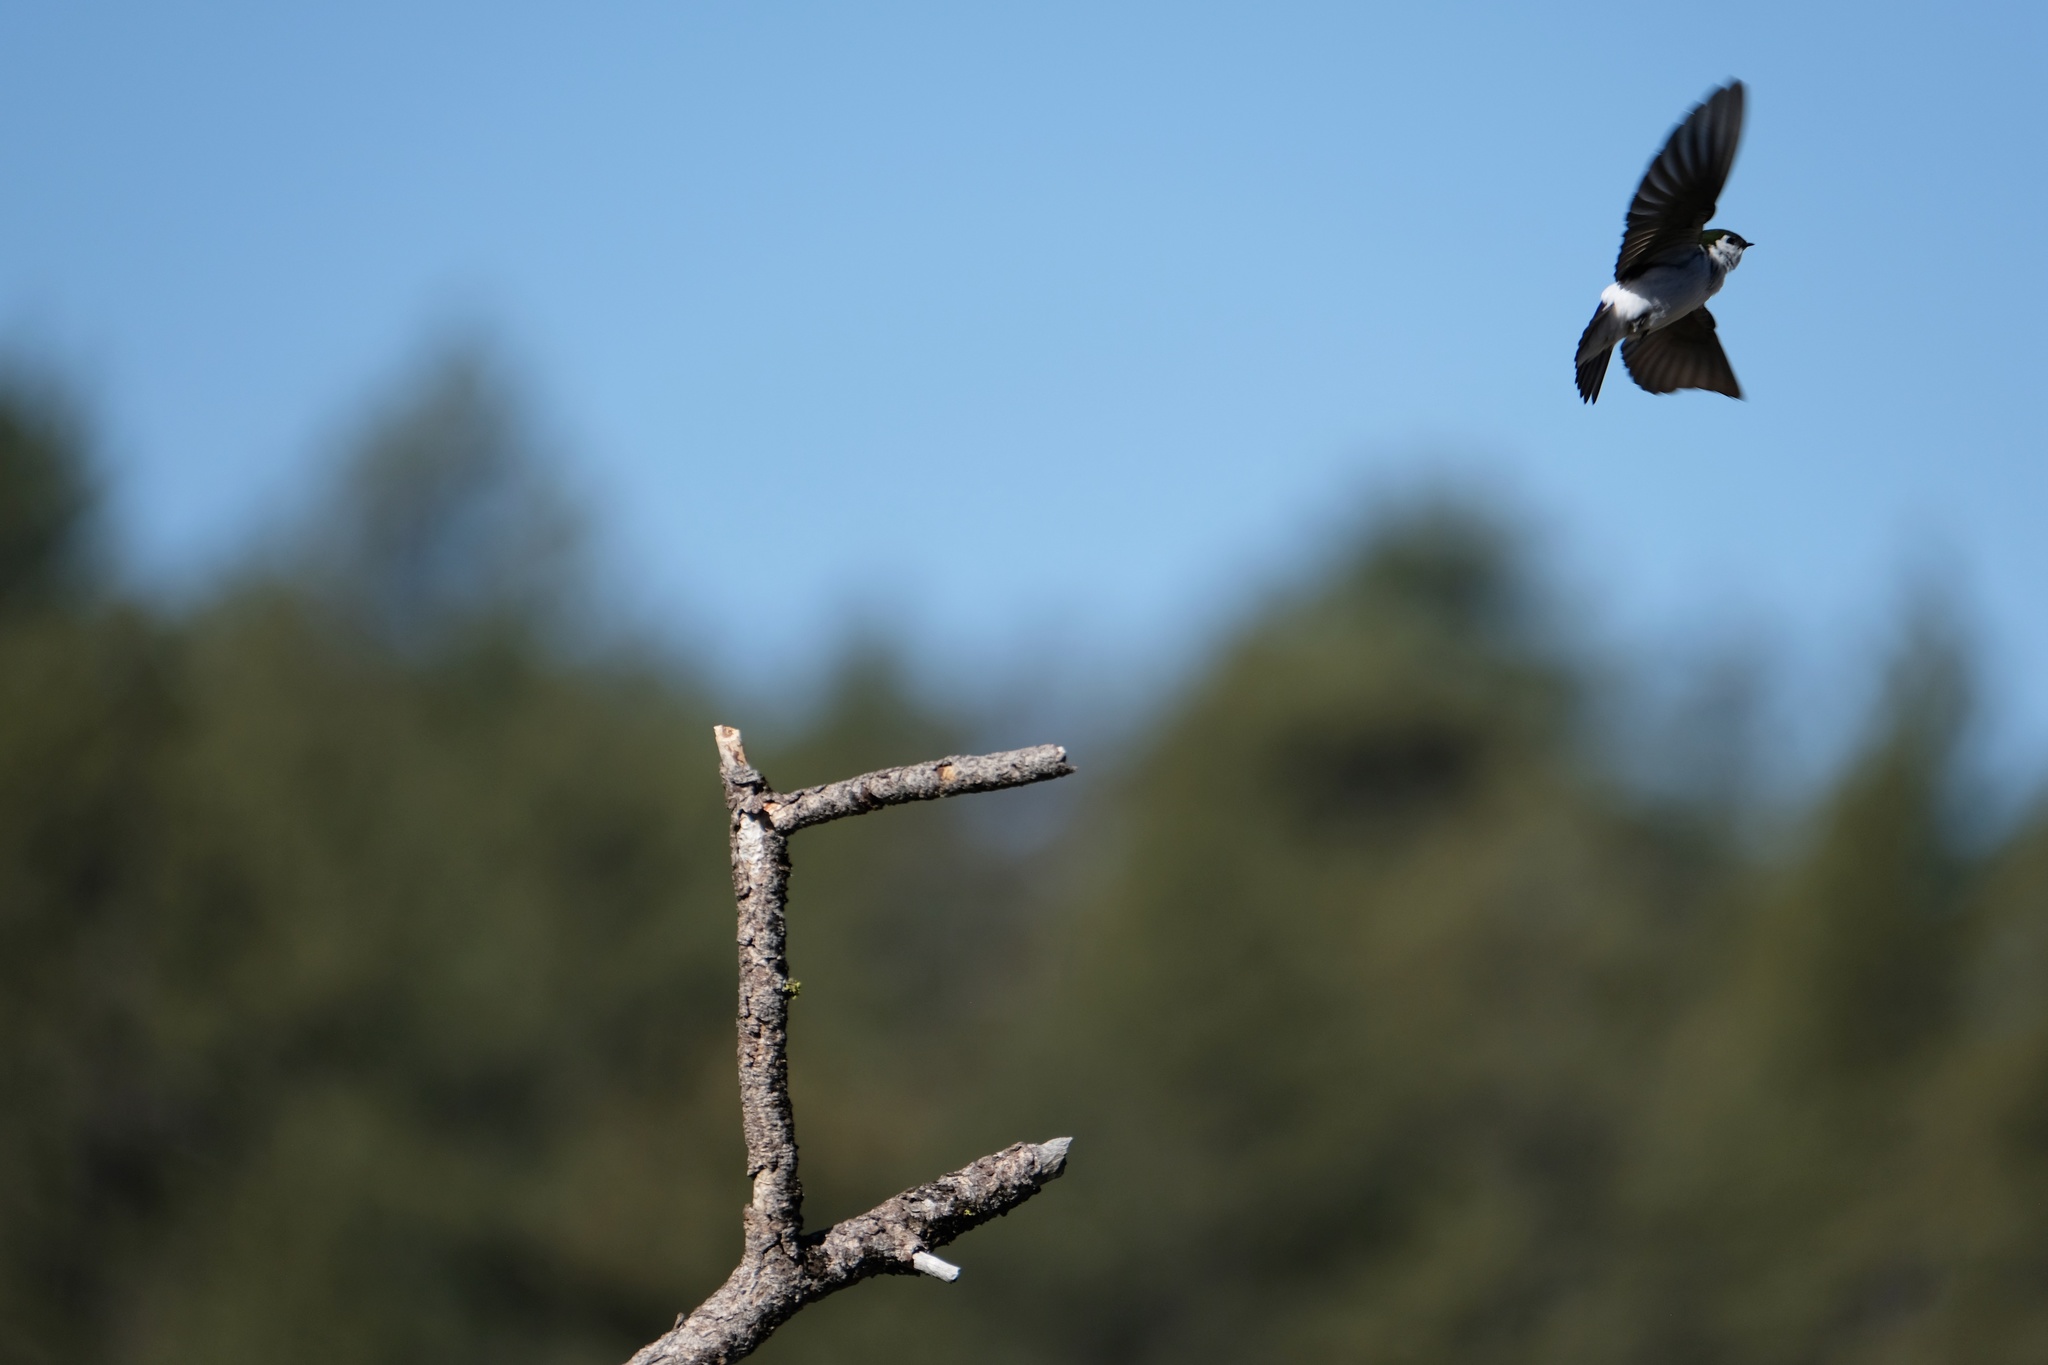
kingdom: Animalia
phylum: Chordata
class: Aves
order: Passeriformes
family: Hirundinidae
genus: Tachycineta
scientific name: Tachycineta thalassina
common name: Violet-green swallow
